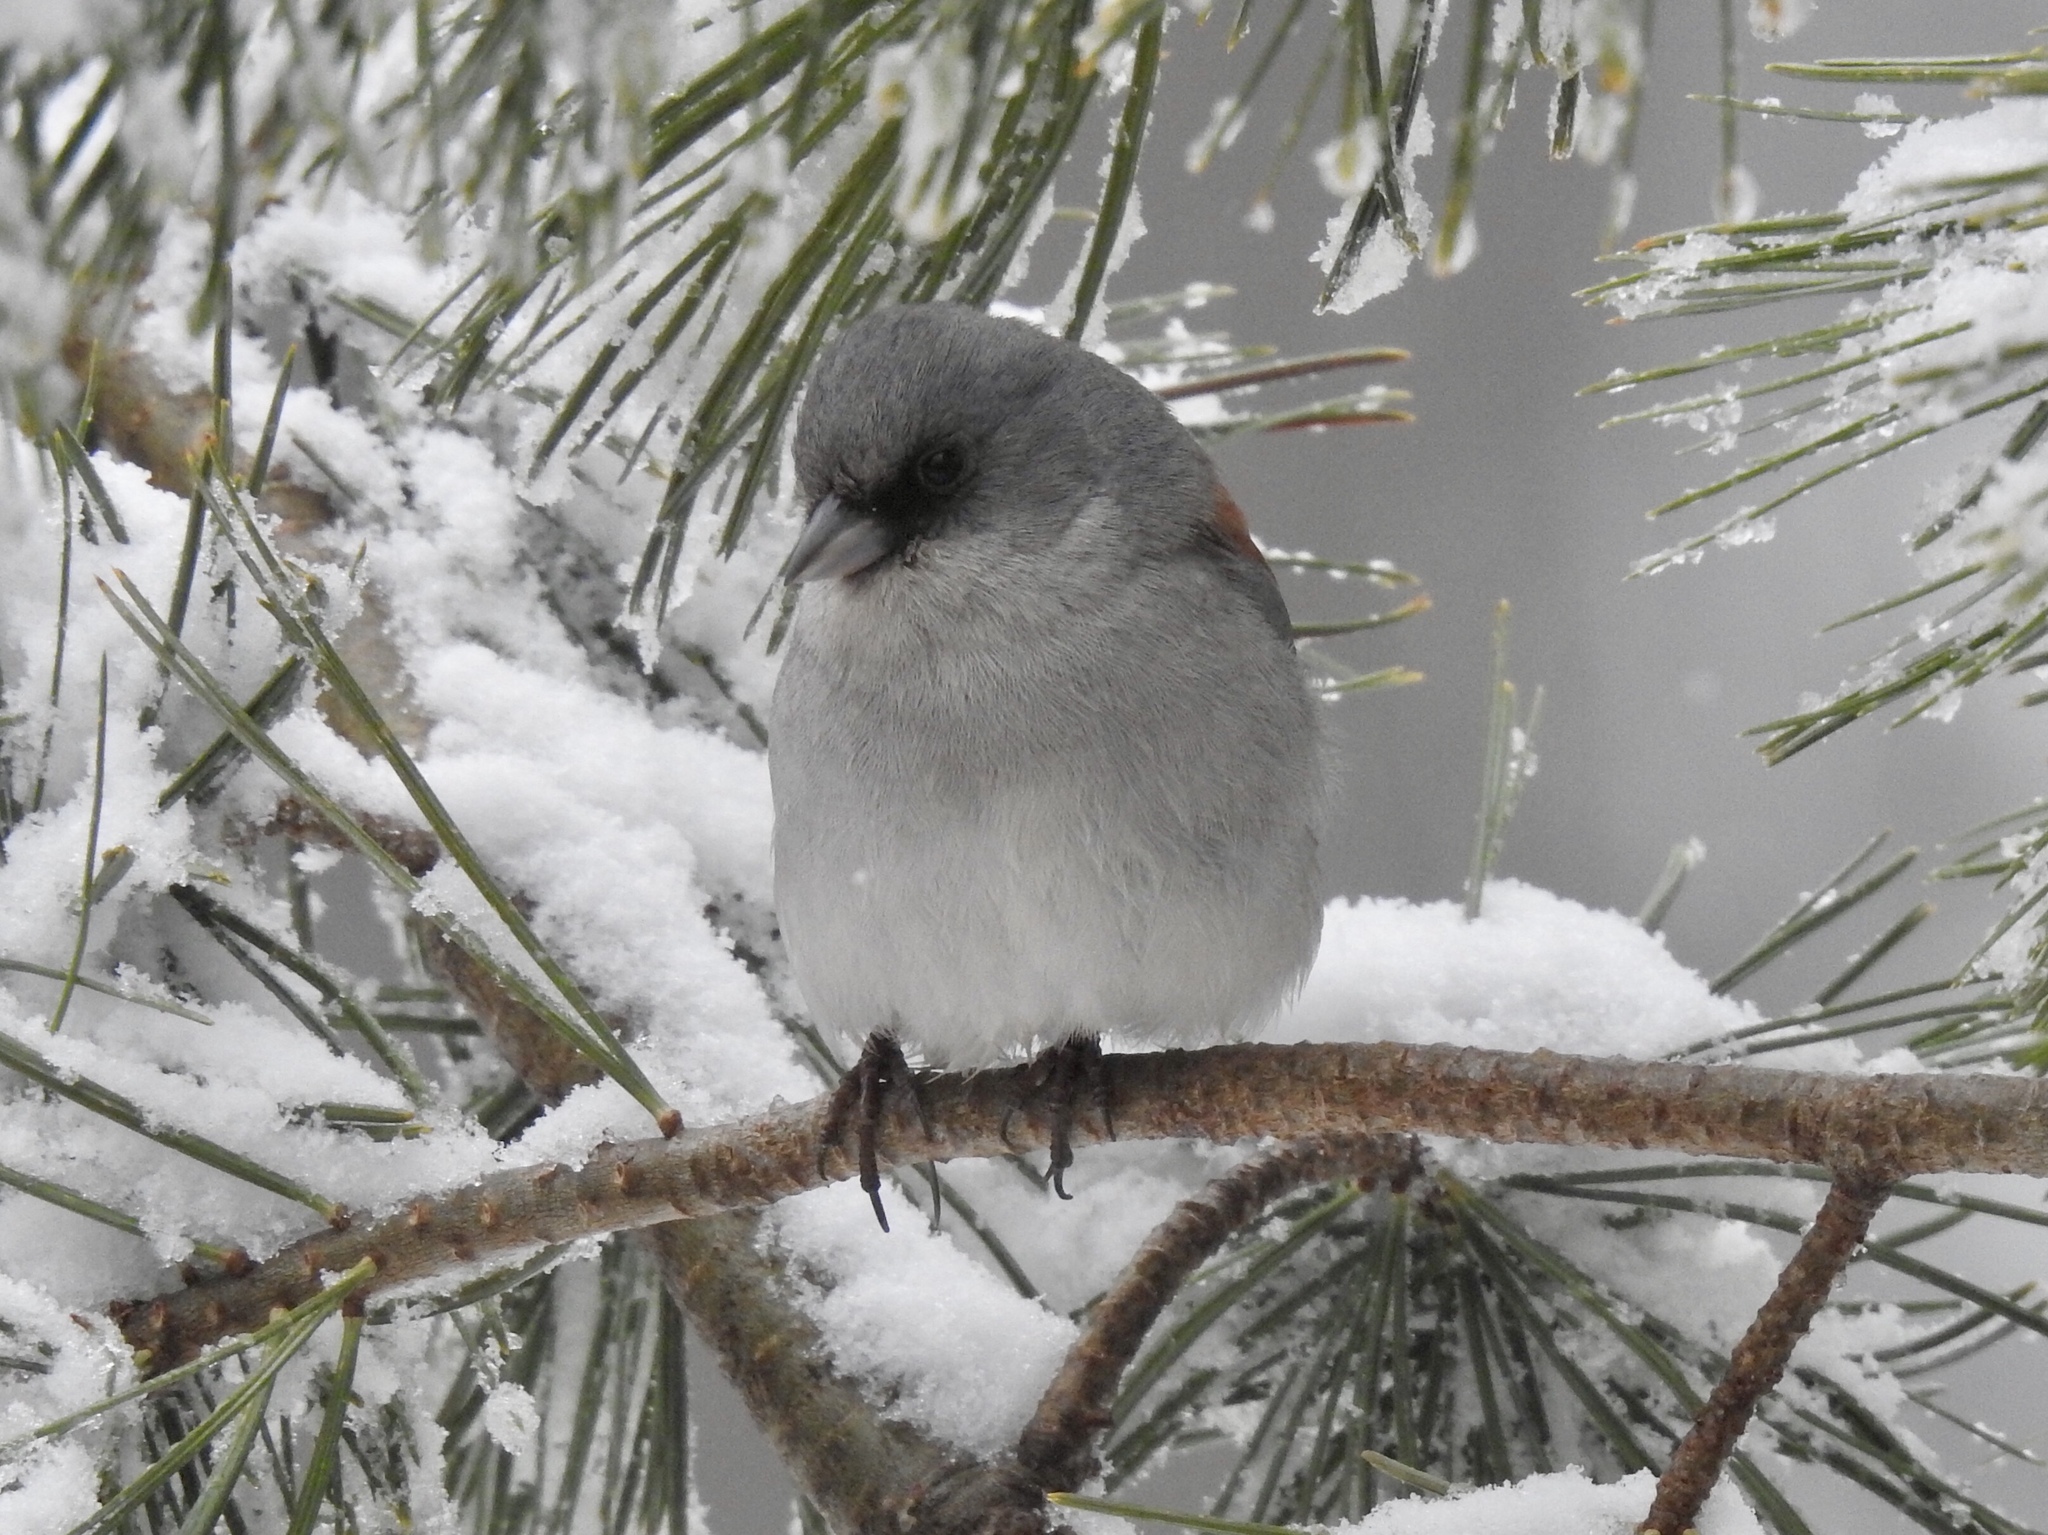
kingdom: Animalia
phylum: Chordata
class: Aves
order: Passeriformes
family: Passerellidae
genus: Junco
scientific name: Junco hyemalis
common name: Dark-eyed junco
